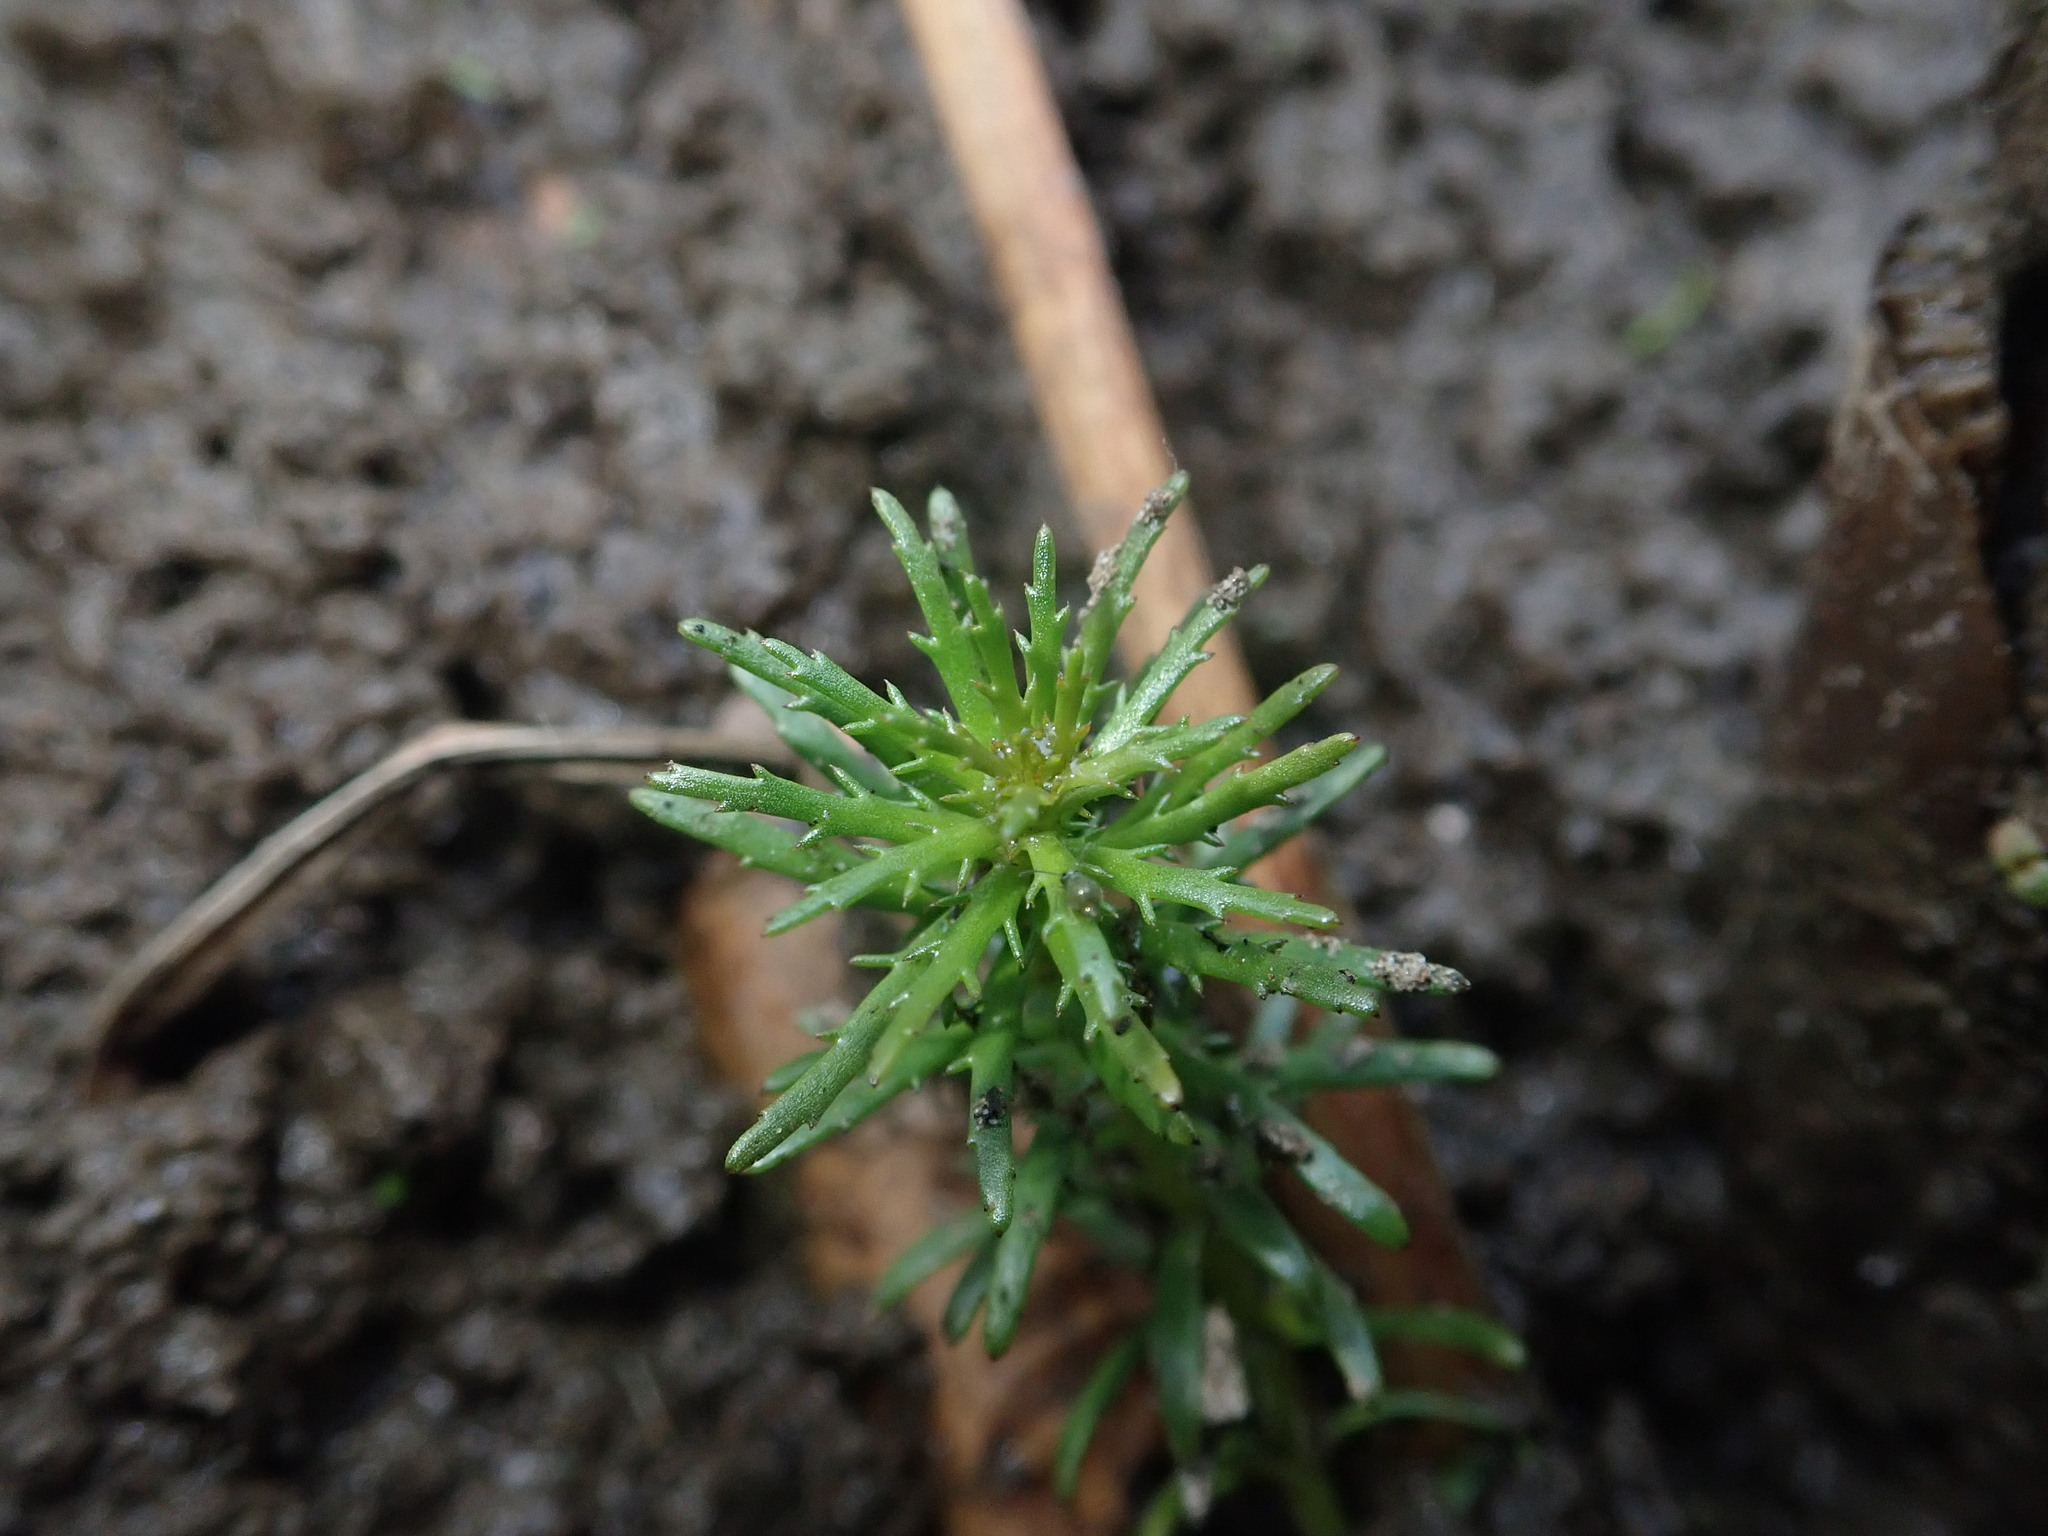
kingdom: Plantae
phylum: Tracheophyta
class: Magnoliopsida
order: Saxifragales
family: Haloragaceae
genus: Myriophyllum
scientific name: Myriophyllum hippuroides
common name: Western milfoil
